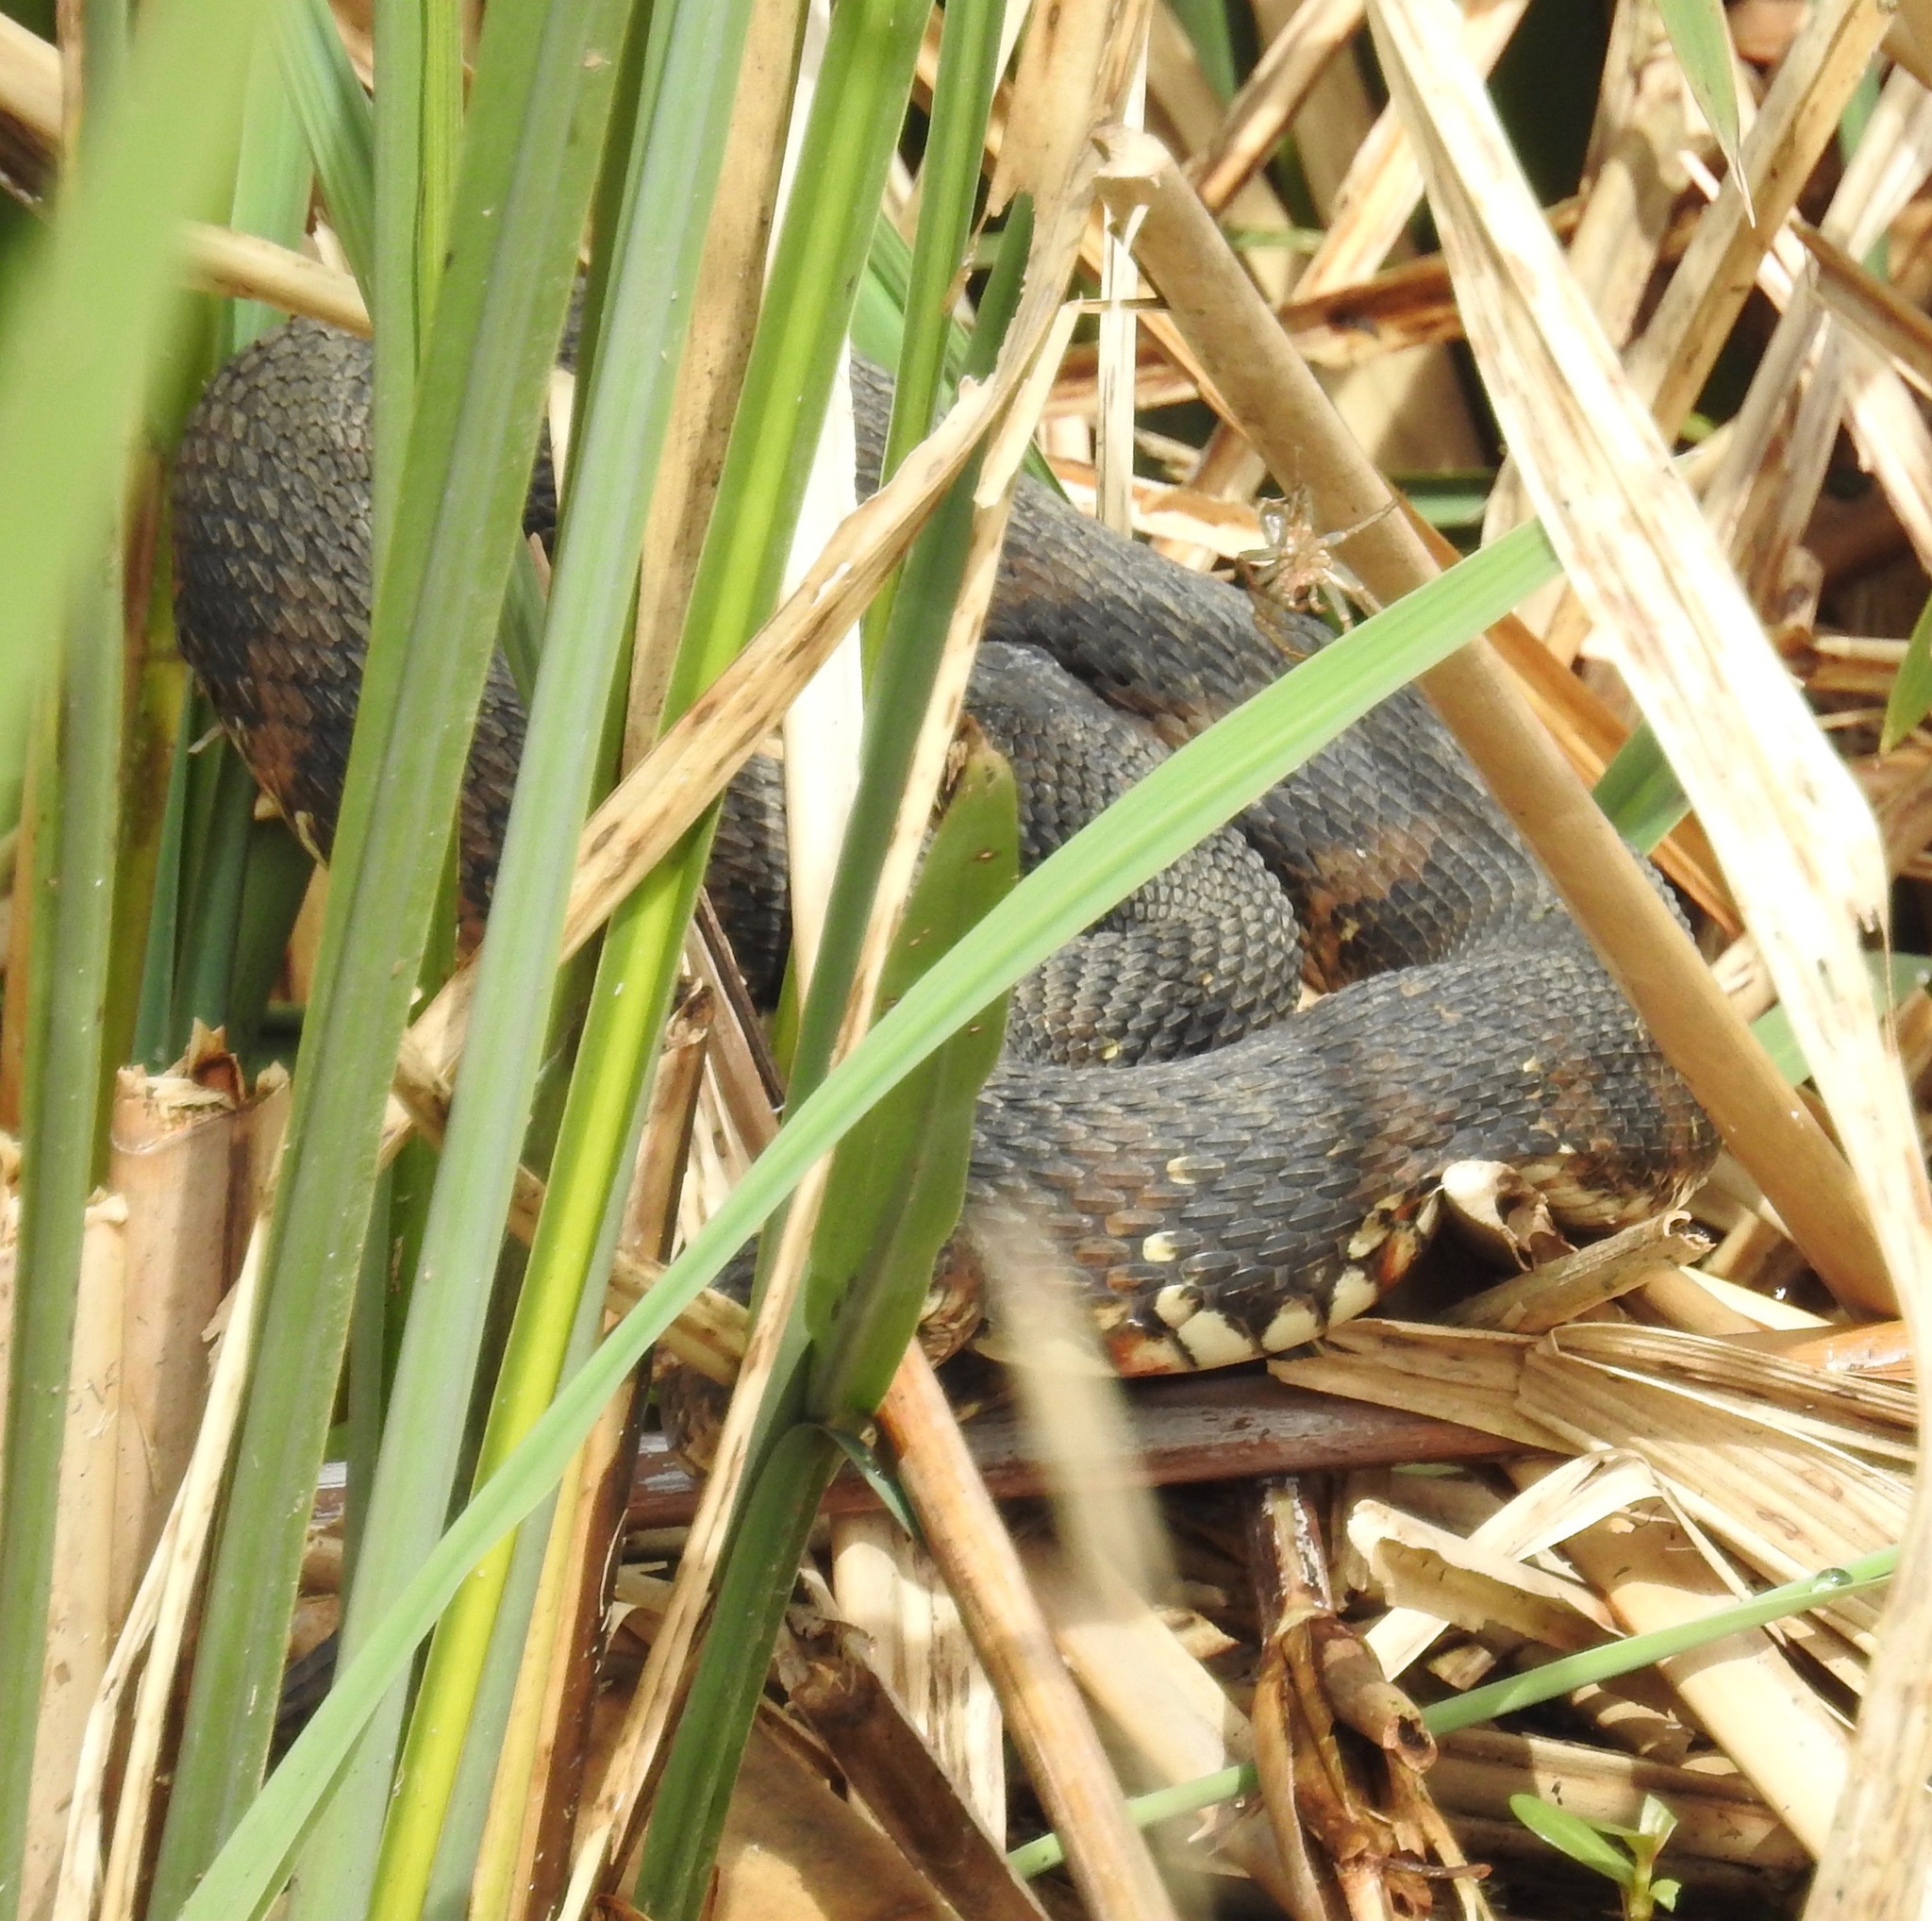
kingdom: Animalia
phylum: Chordata
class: Squamata
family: Colubridae
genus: Nerodia
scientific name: Nerodia fasciata
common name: Southern water snake
